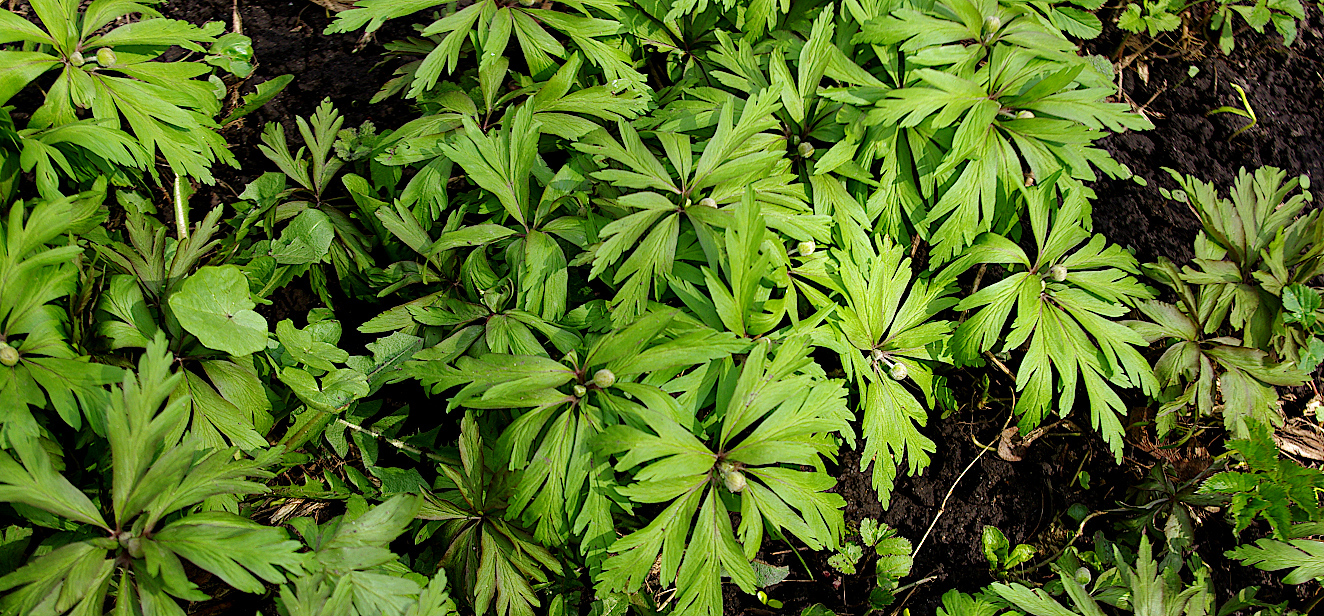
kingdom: Plantae
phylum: Tracheophyta
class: Magnoliopsida
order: Ranunculales
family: Ranunculaceae
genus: Anemone
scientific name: Anemone ranunculoides
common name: Yellow anemone
